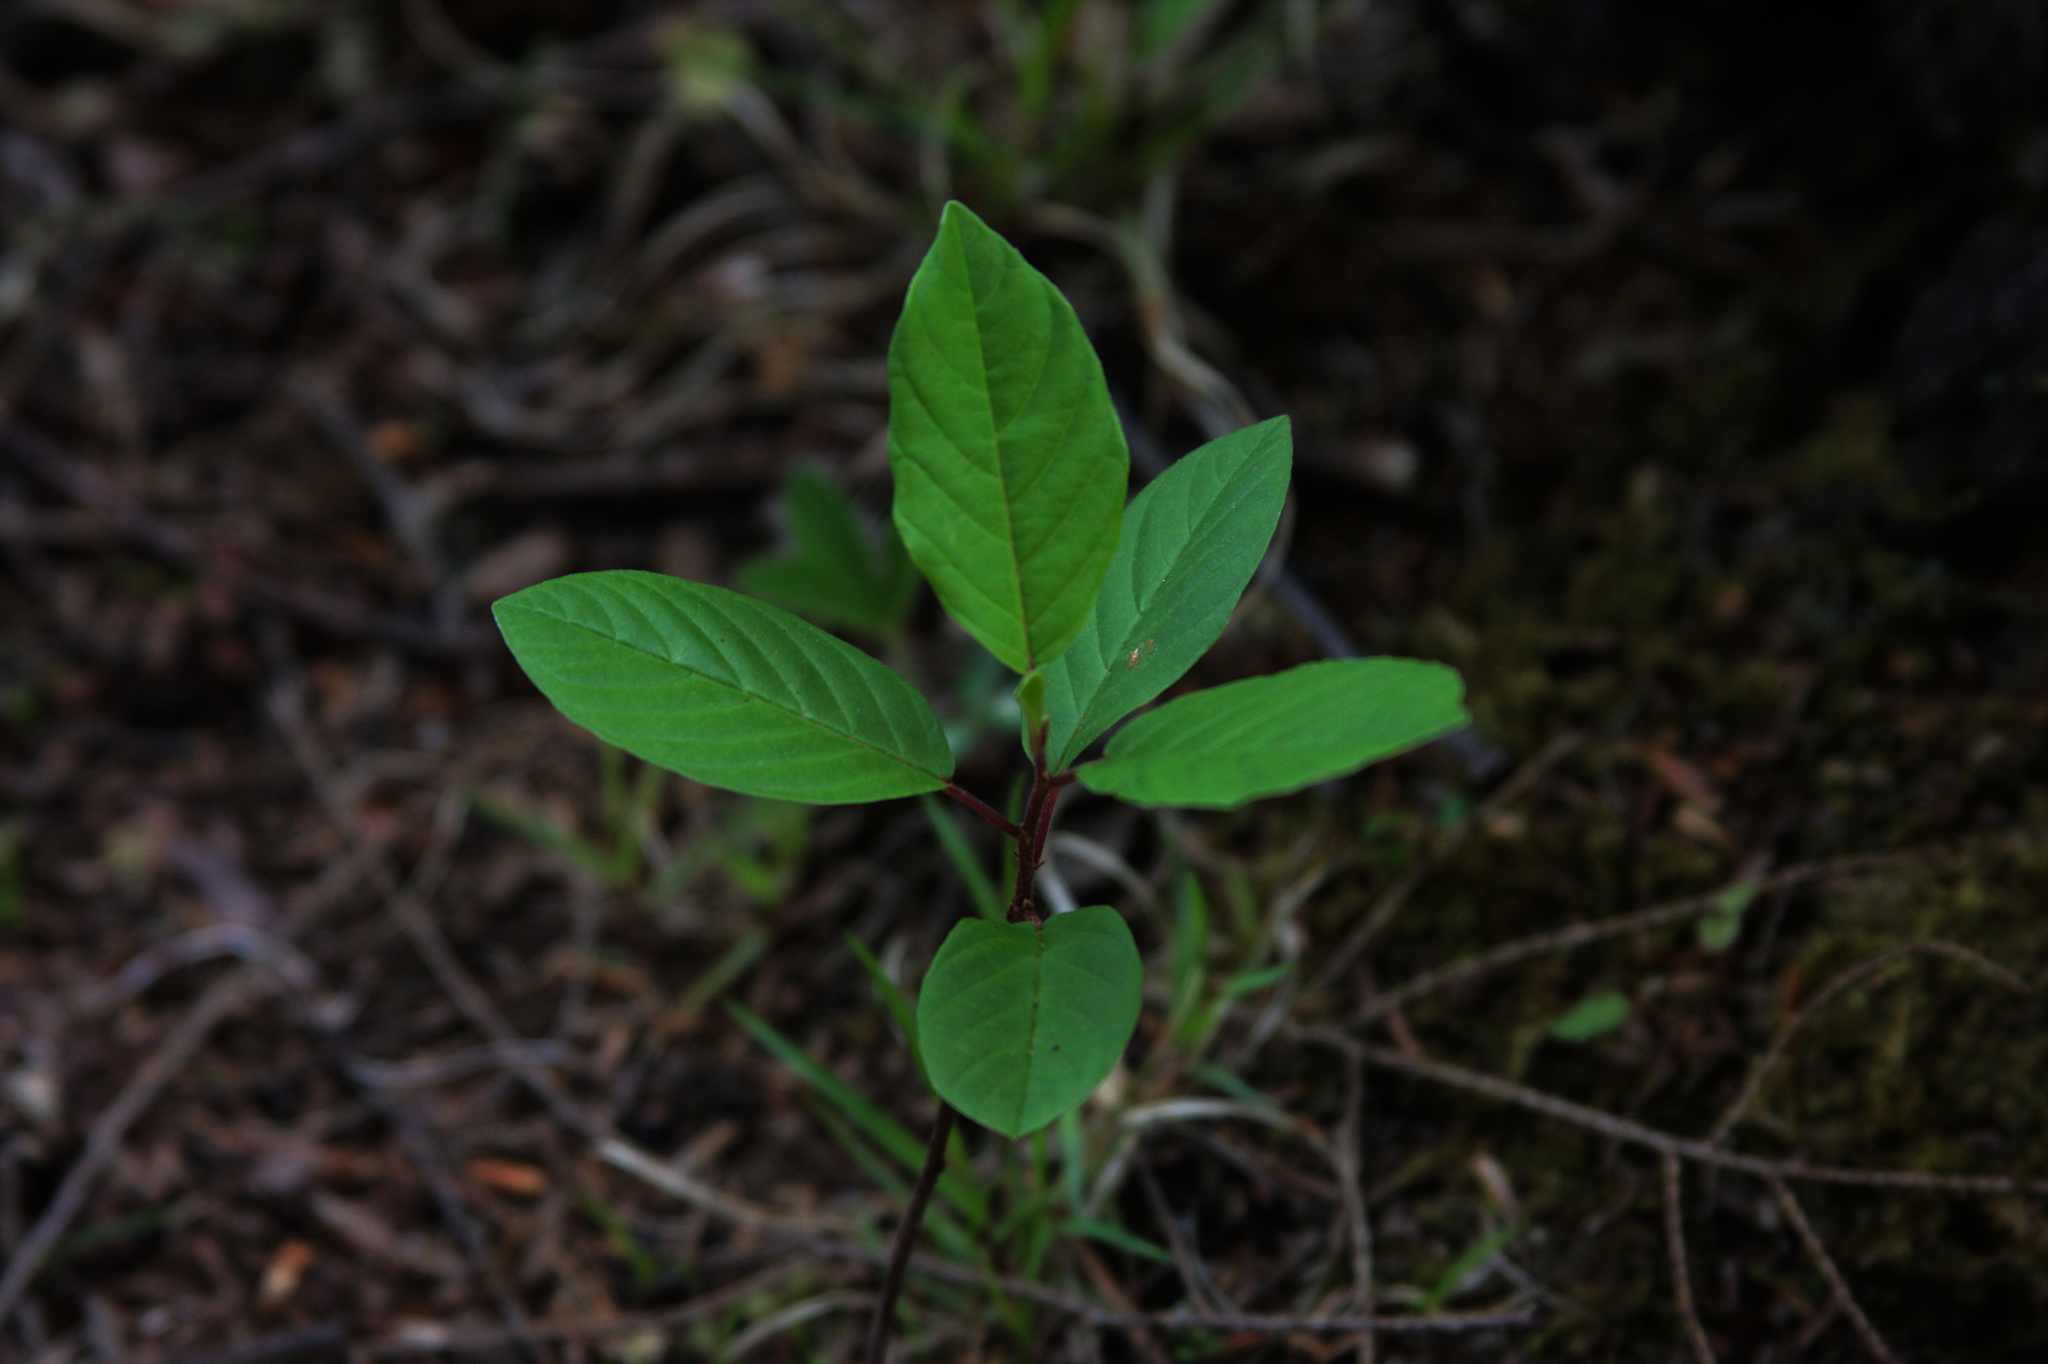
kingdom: Plantae
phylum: Tracheophyta
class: Magnoliopsida
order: Rosales
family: Rhamnaceae
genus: Frangula
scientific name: Frangula alnus
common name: Alder buckthorn
